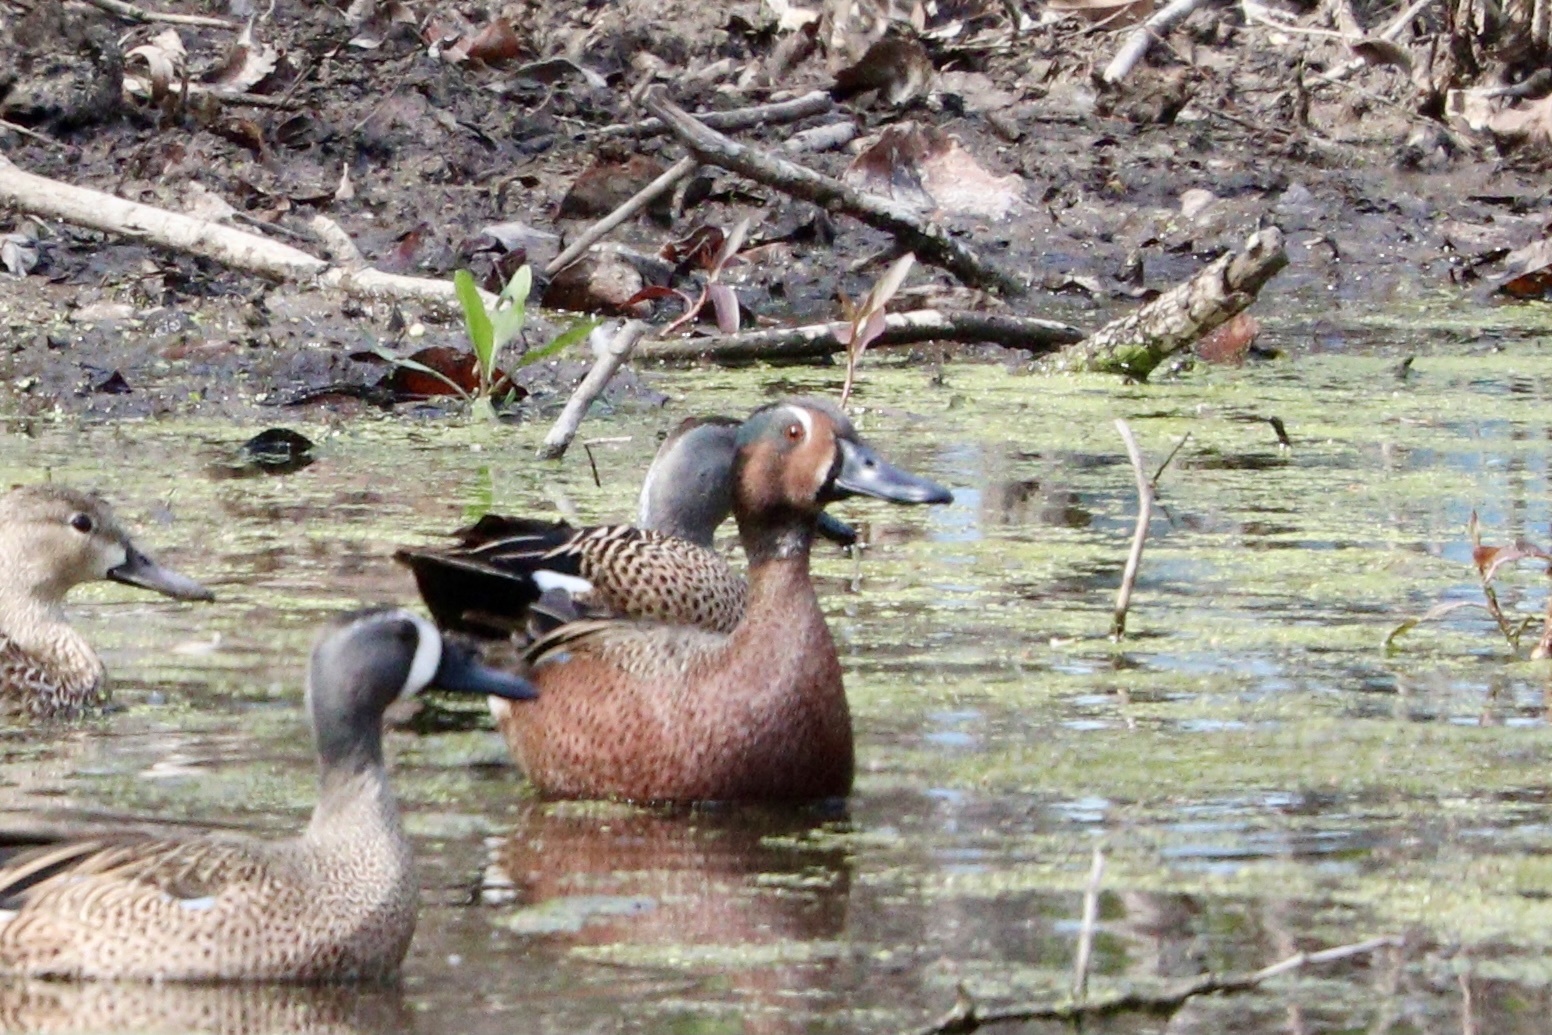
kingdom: Animalia
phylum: Chordata
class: Aves
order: Anseriformes
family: Anatidae
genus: Spatula
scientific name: Spatula
